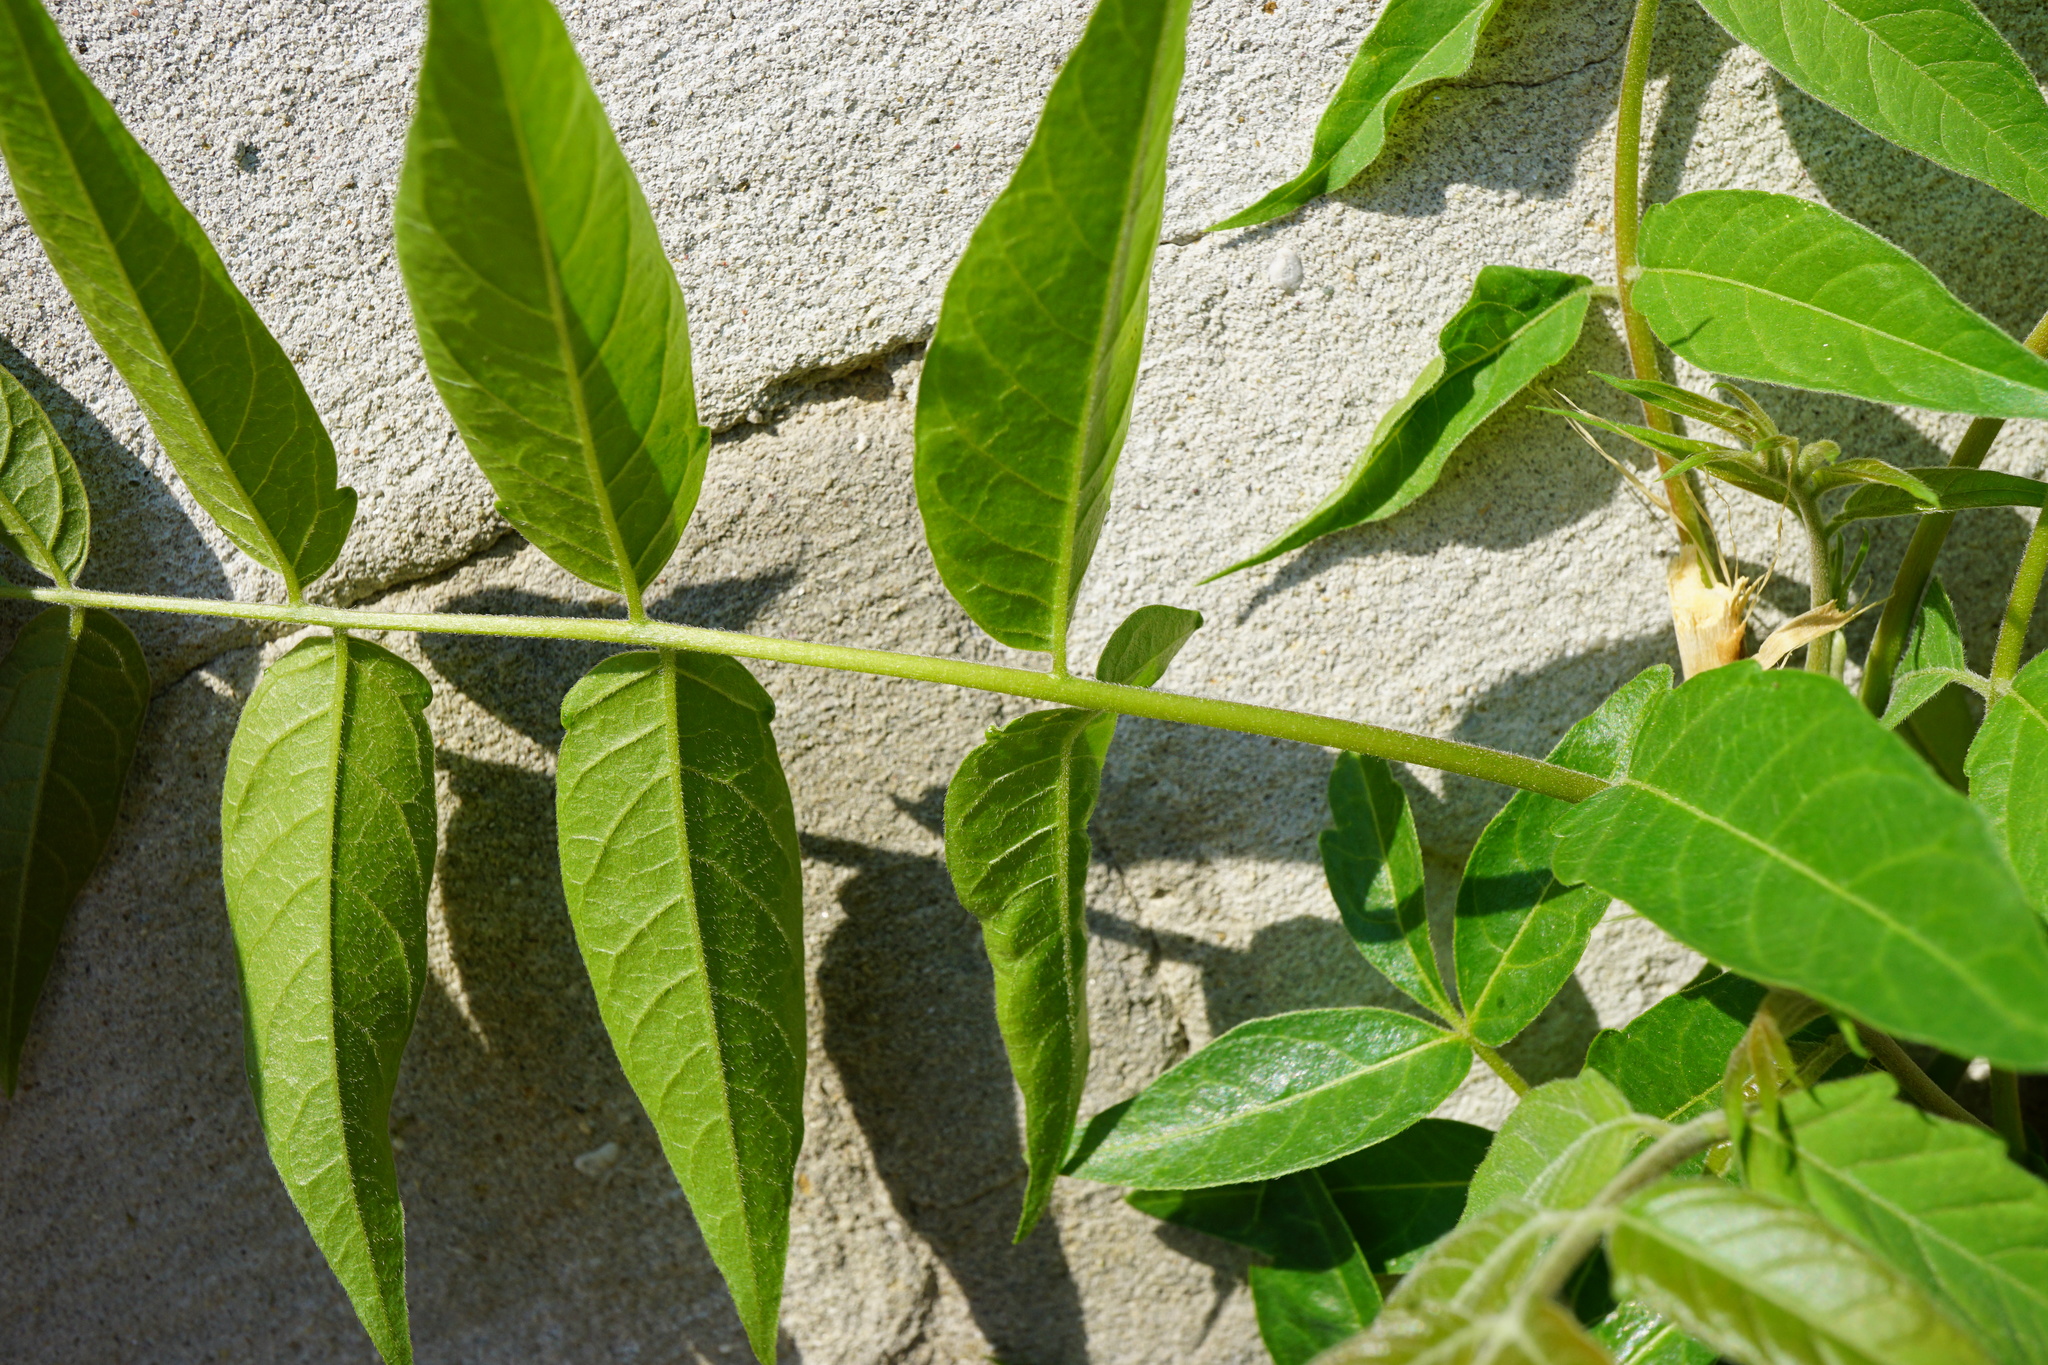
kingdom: Plantae
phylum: Tracheophyta
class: Magnoliopsida
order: Sapindales
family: Simaroubaceae
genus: Ailanthus
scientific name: Ailanthus altissima
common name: Tree-of-heaven
